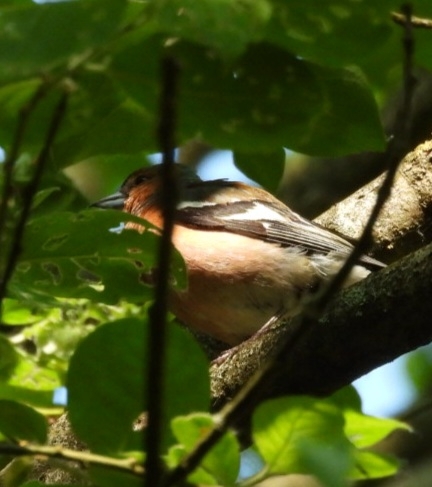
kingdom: Animalia
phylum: Chordata
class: Aves
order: Passeriformes
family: Fringillidae
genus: Fringilla
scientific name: Fringilla coelebs
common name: Common chaffinch
